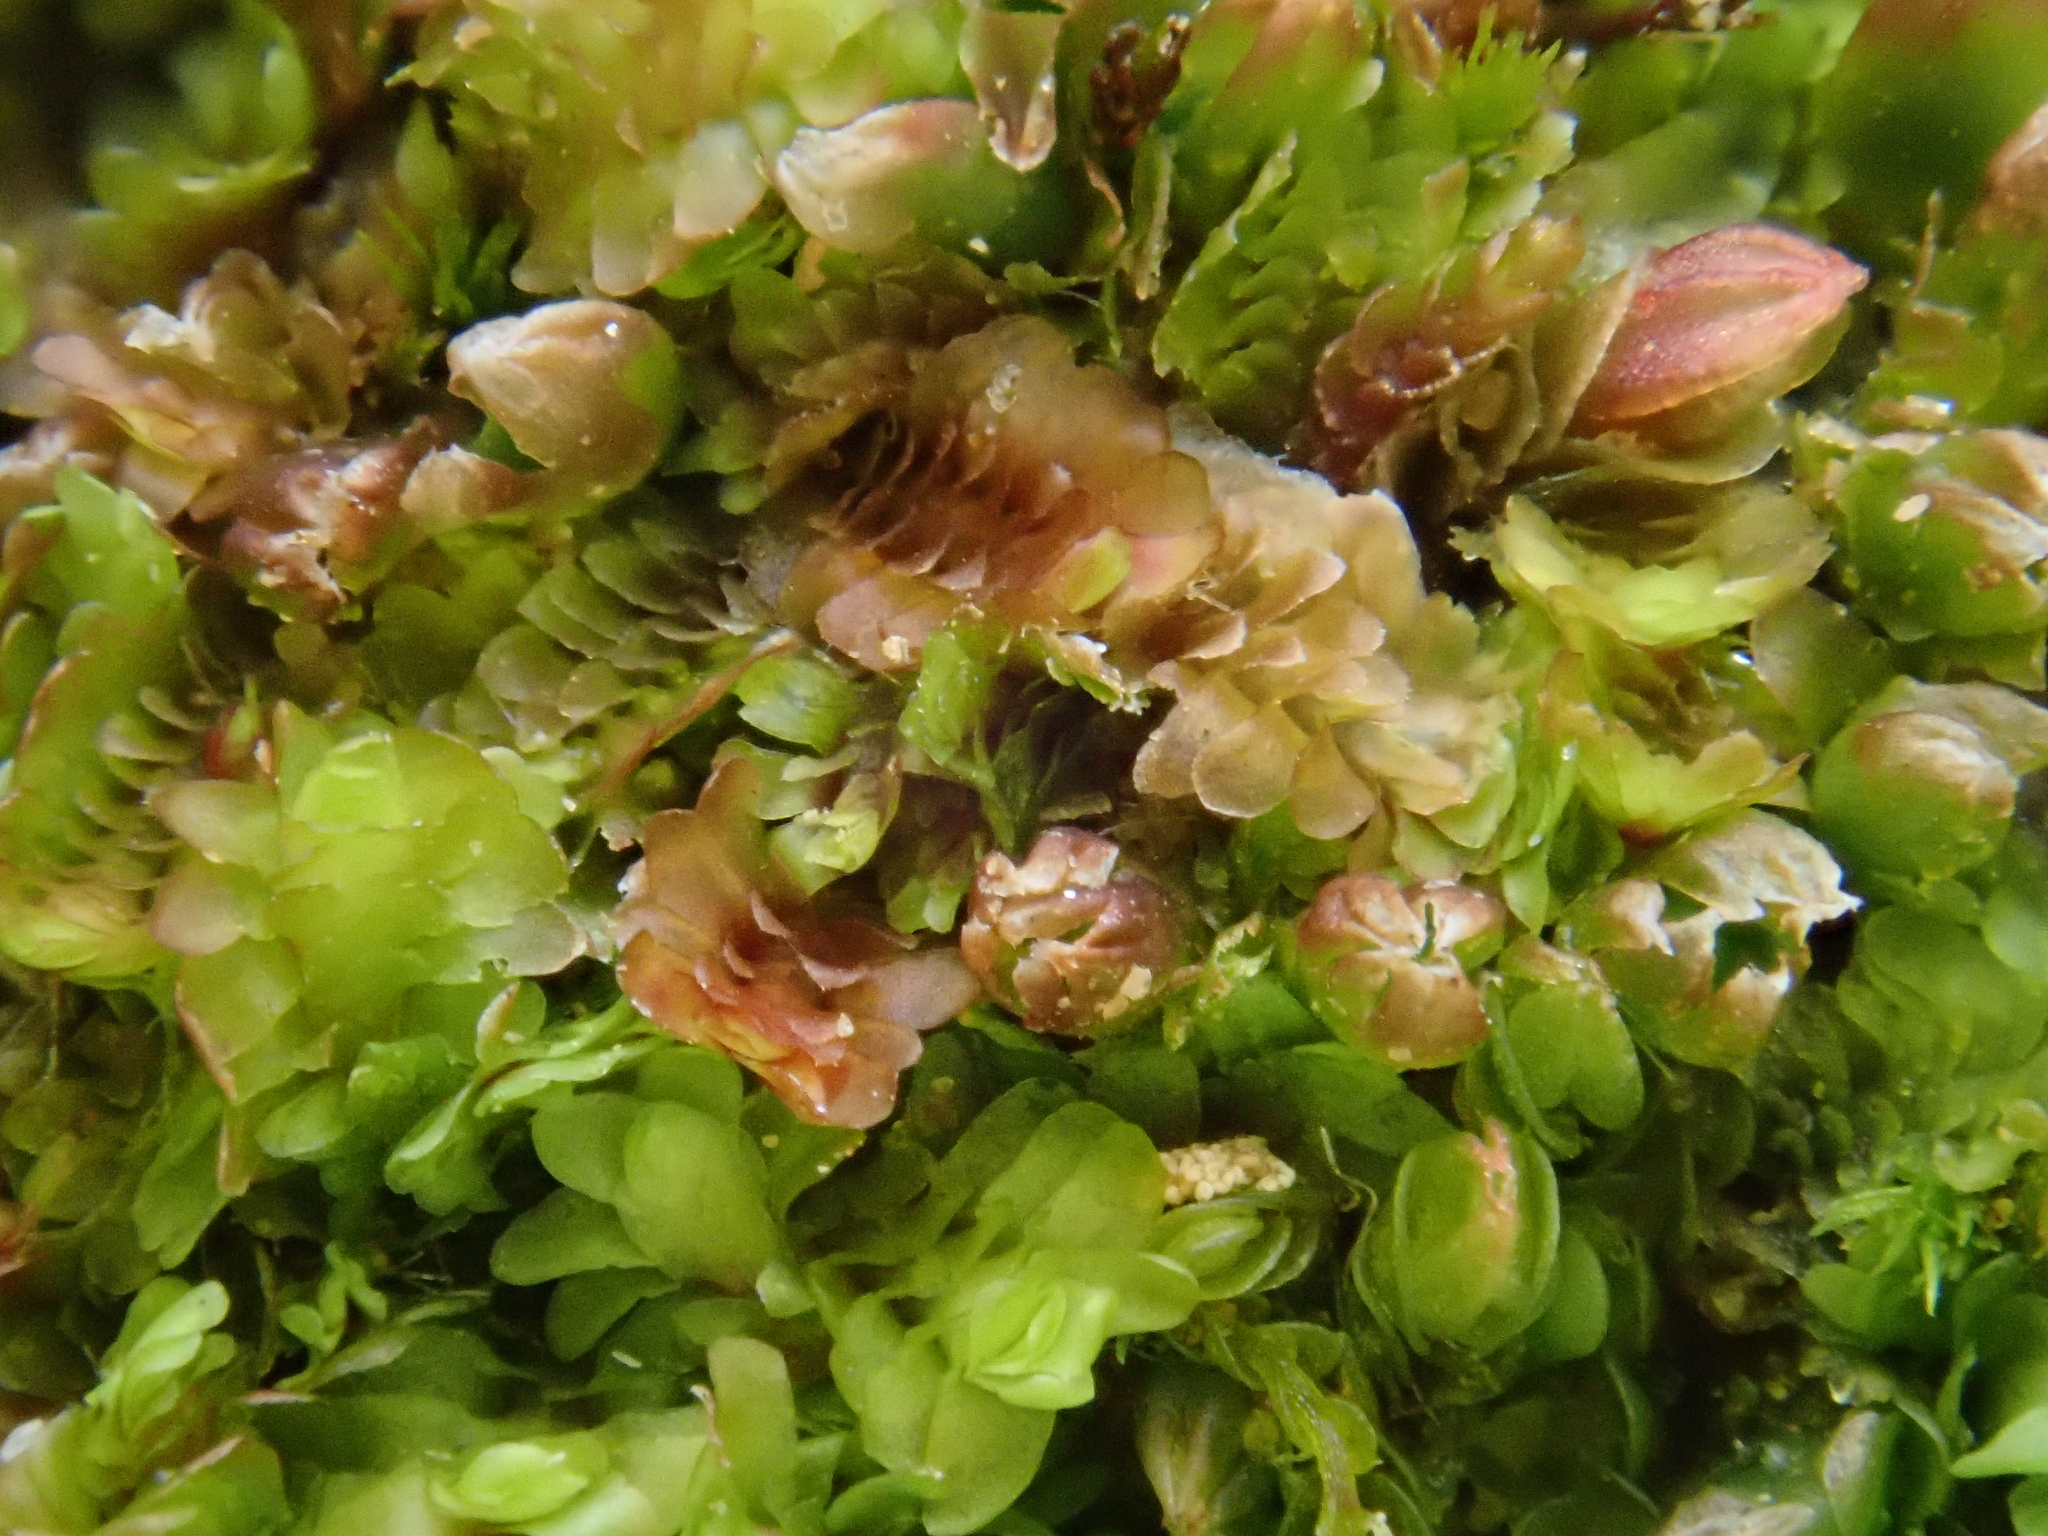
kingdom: Plantae
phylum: Marchantiophyta
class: Jungermanniopsida
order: Jungermanniales
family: Scapaniaceae
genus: Diplophyllum
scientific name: Diplophyllum obtusifolium
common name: Blunt-leaved earwort
